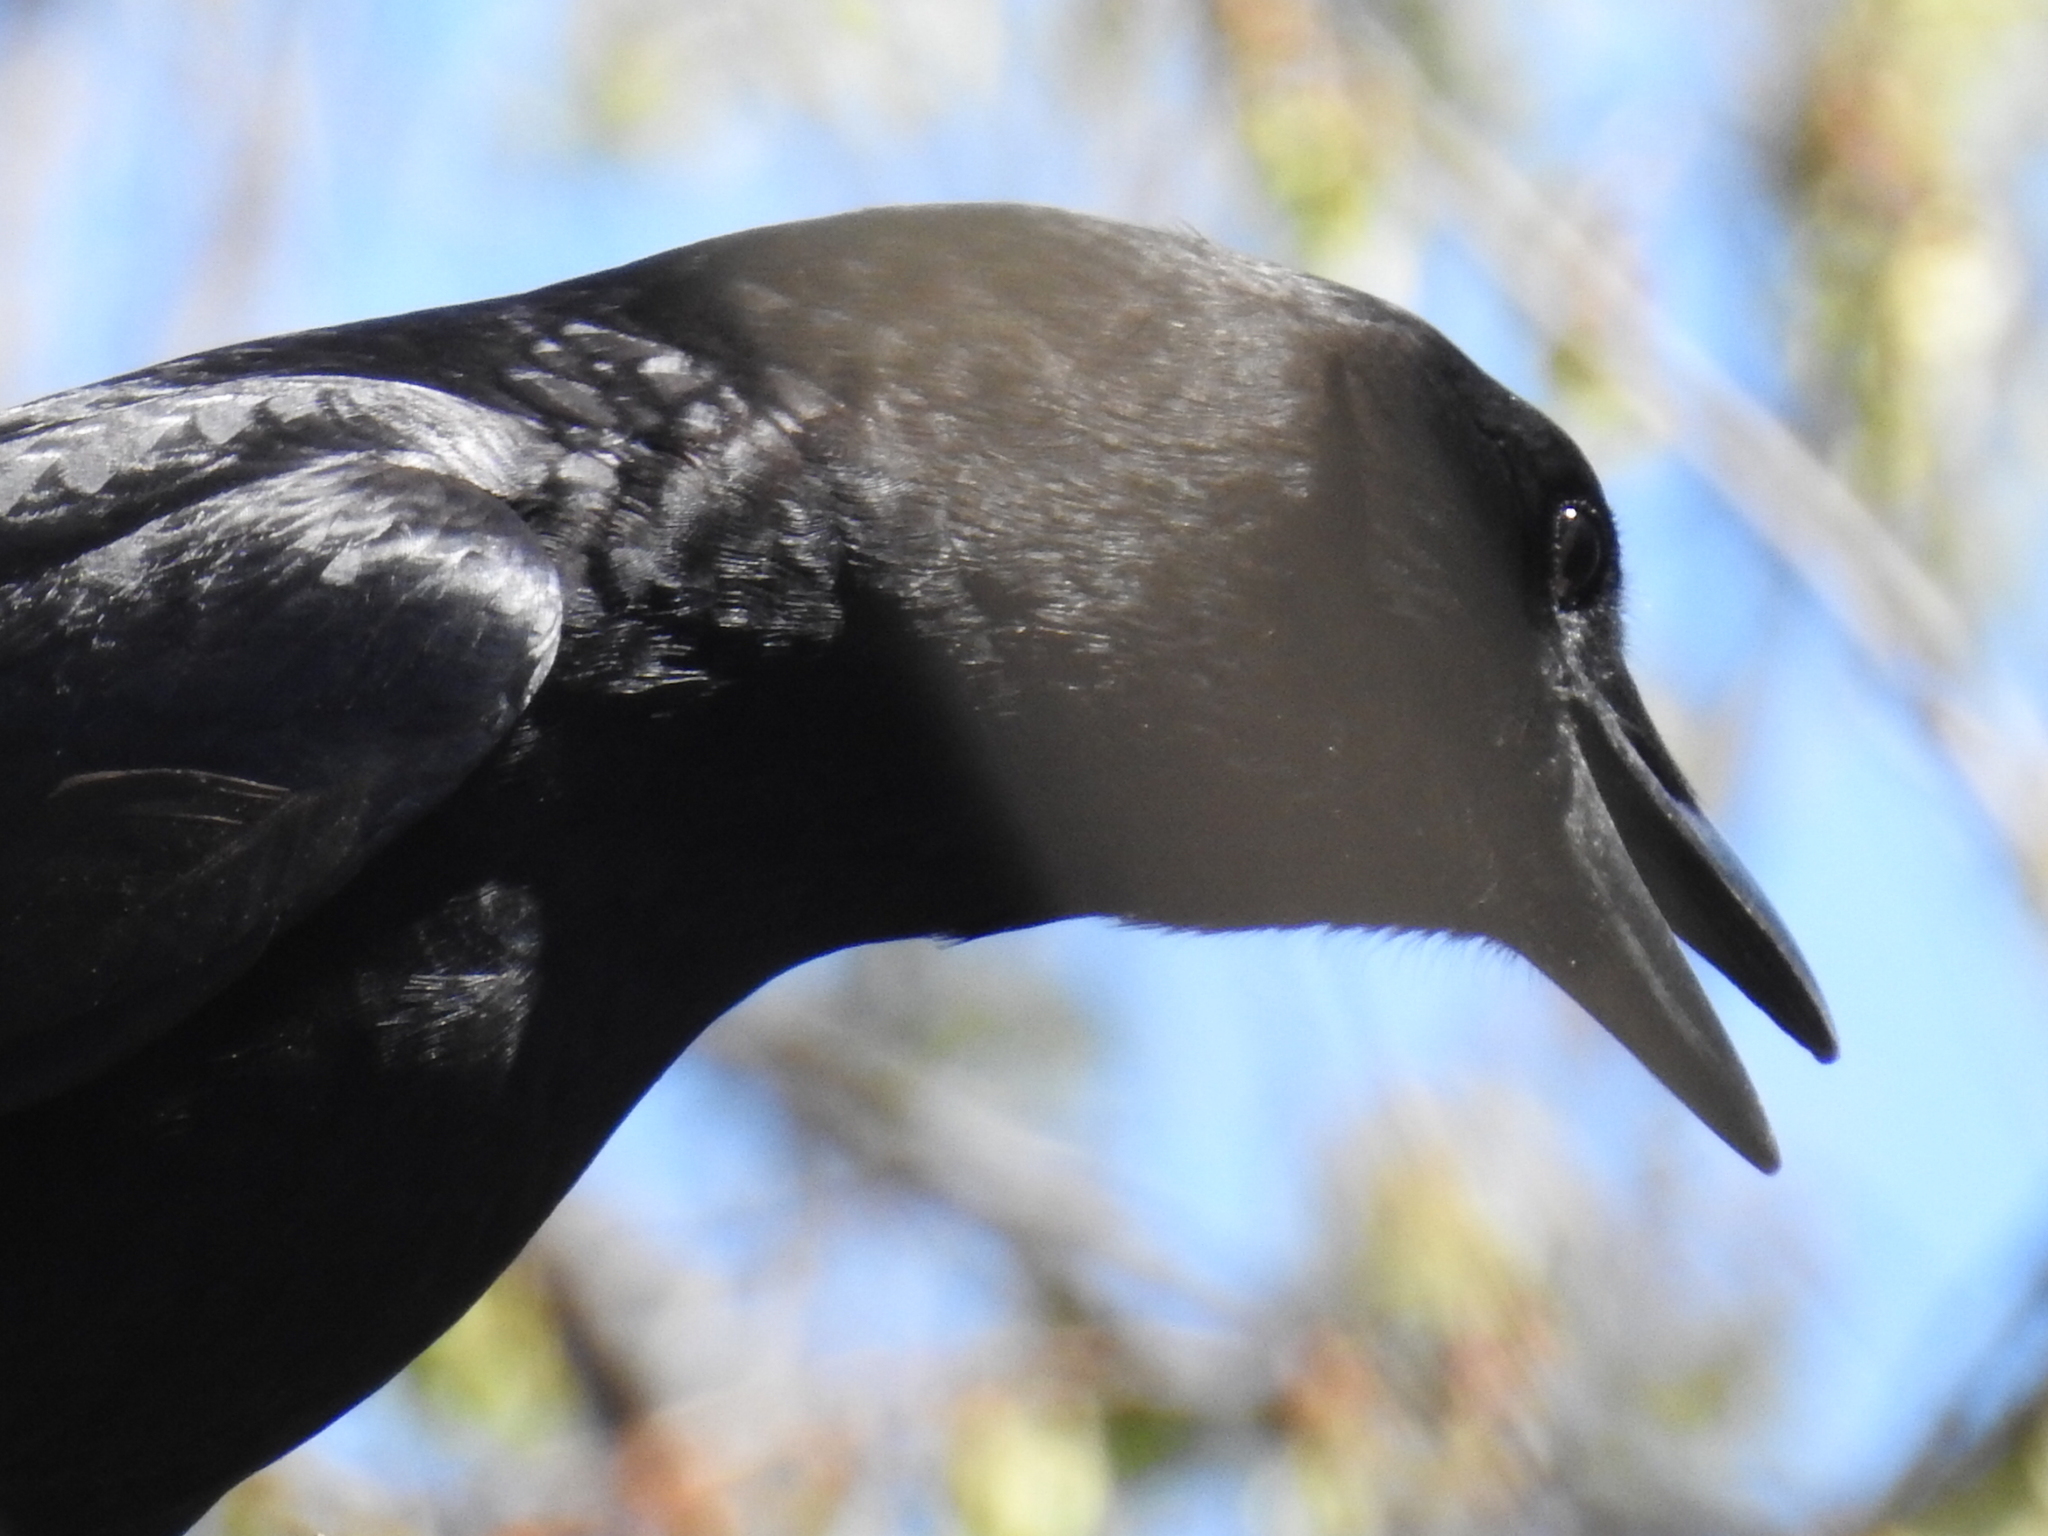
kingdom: Animalia
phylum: Chordata
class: Aves
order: Passeriformes
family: Corvidae
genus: Corvus
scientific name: Corvus brachyrhynchos
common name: American crow
